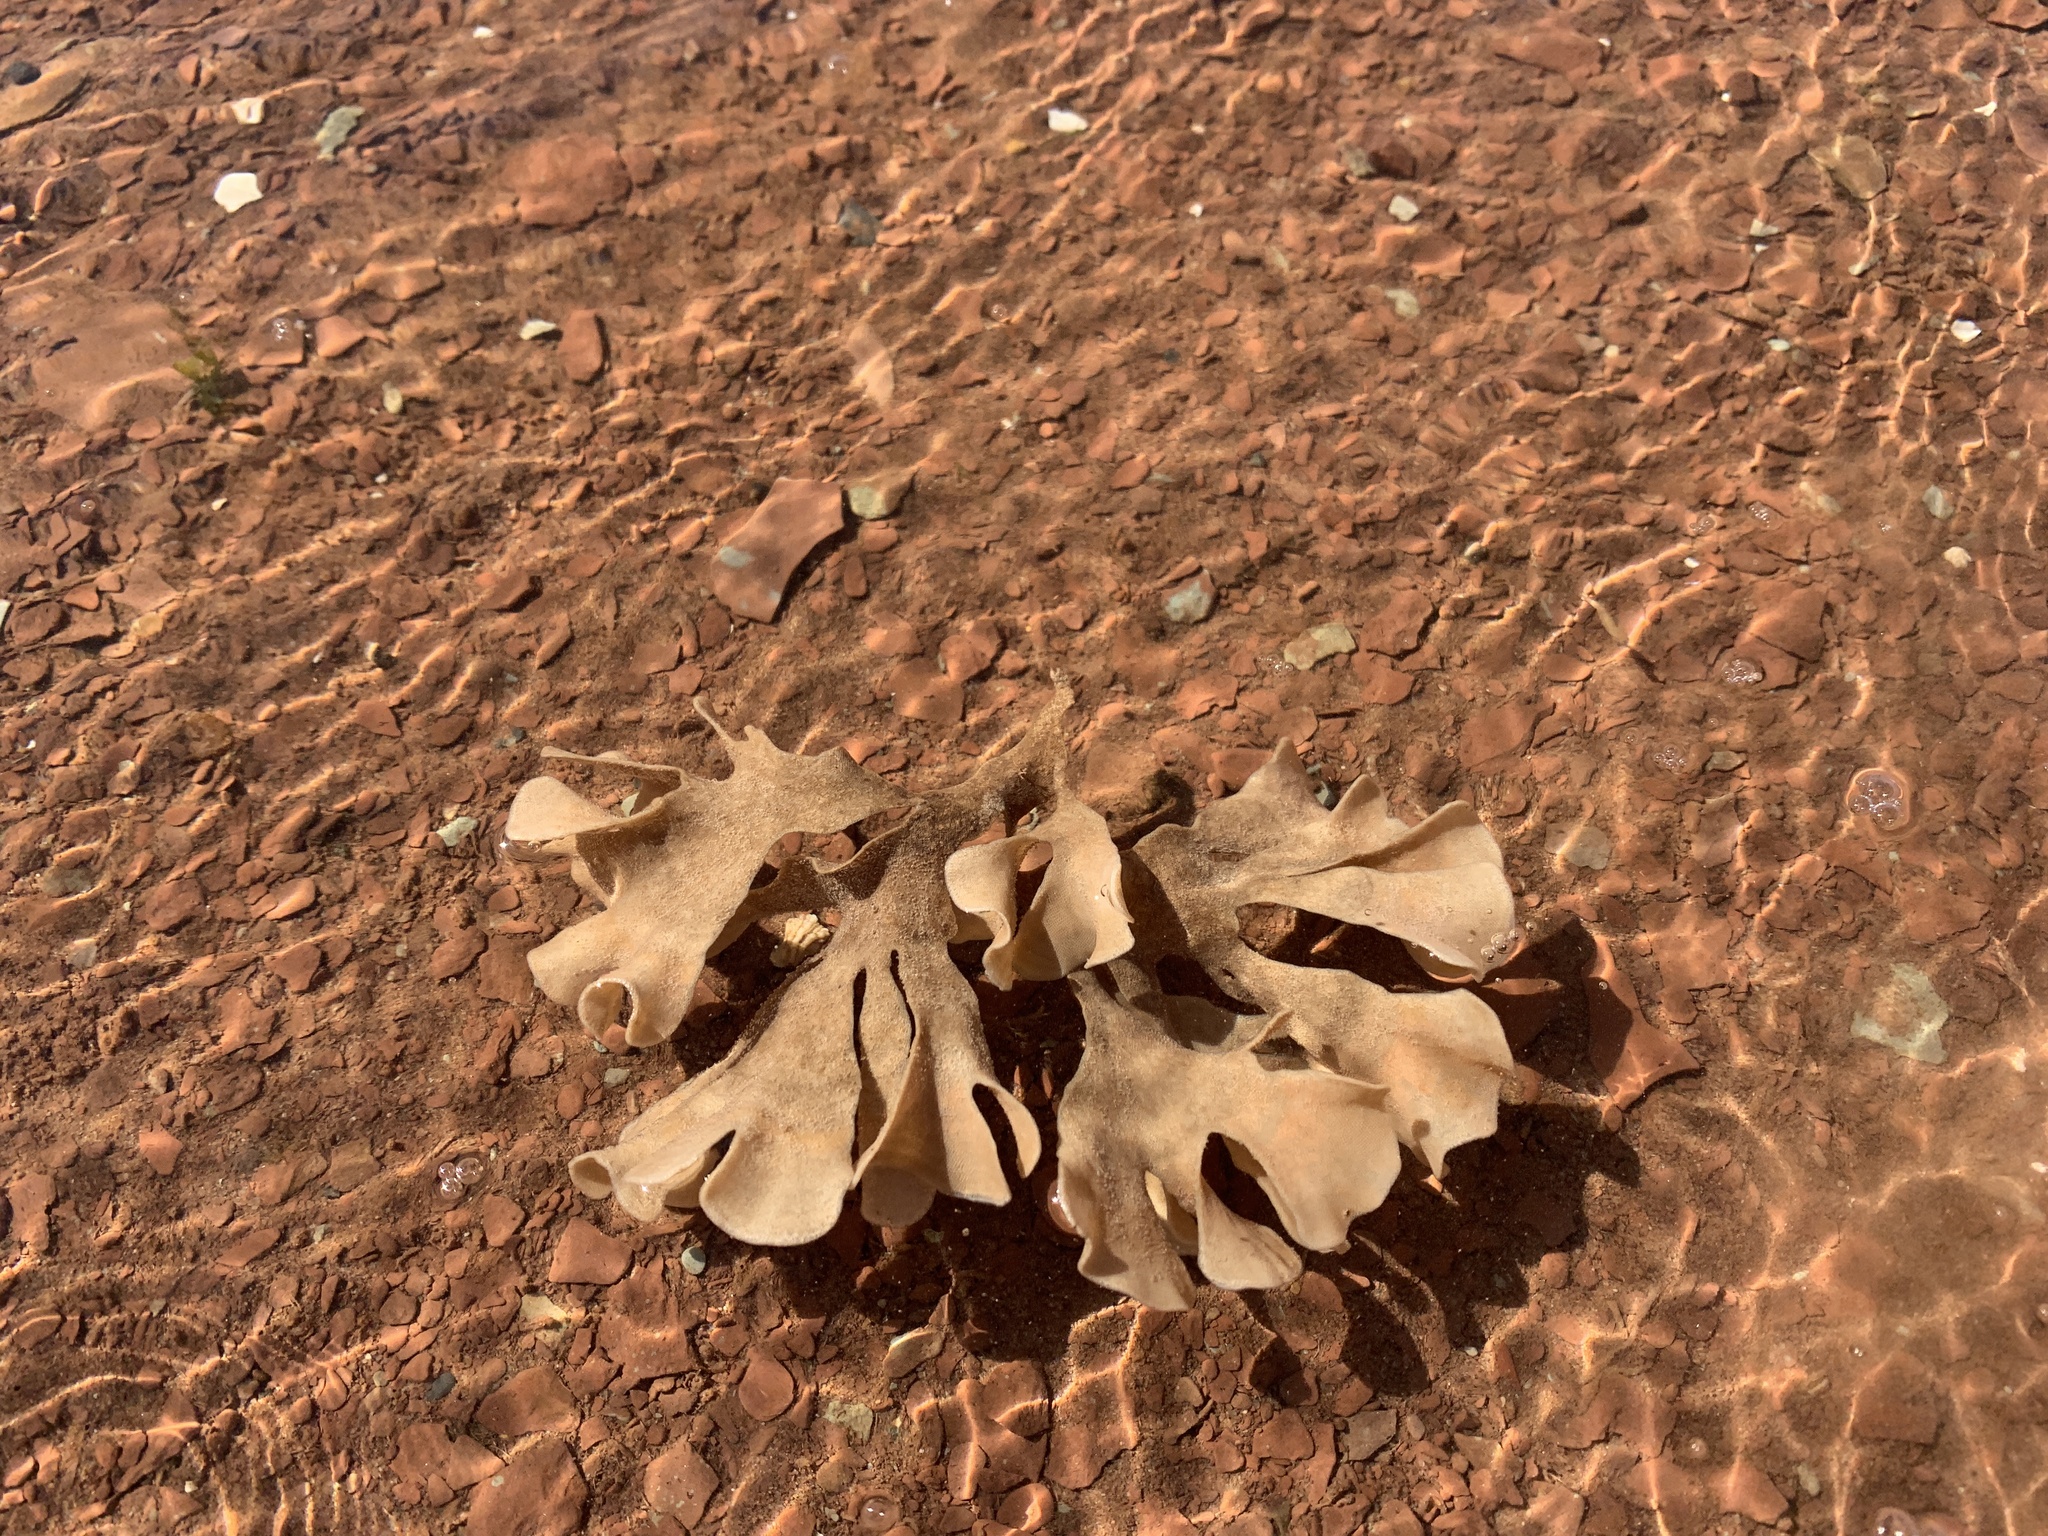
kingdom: Animalia
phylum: Bryozoa
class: Gymnolaemata
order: Cheilostomatida
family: Flustridae
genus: Flustra
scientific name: Flustra foliacea
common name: Hornwrack
